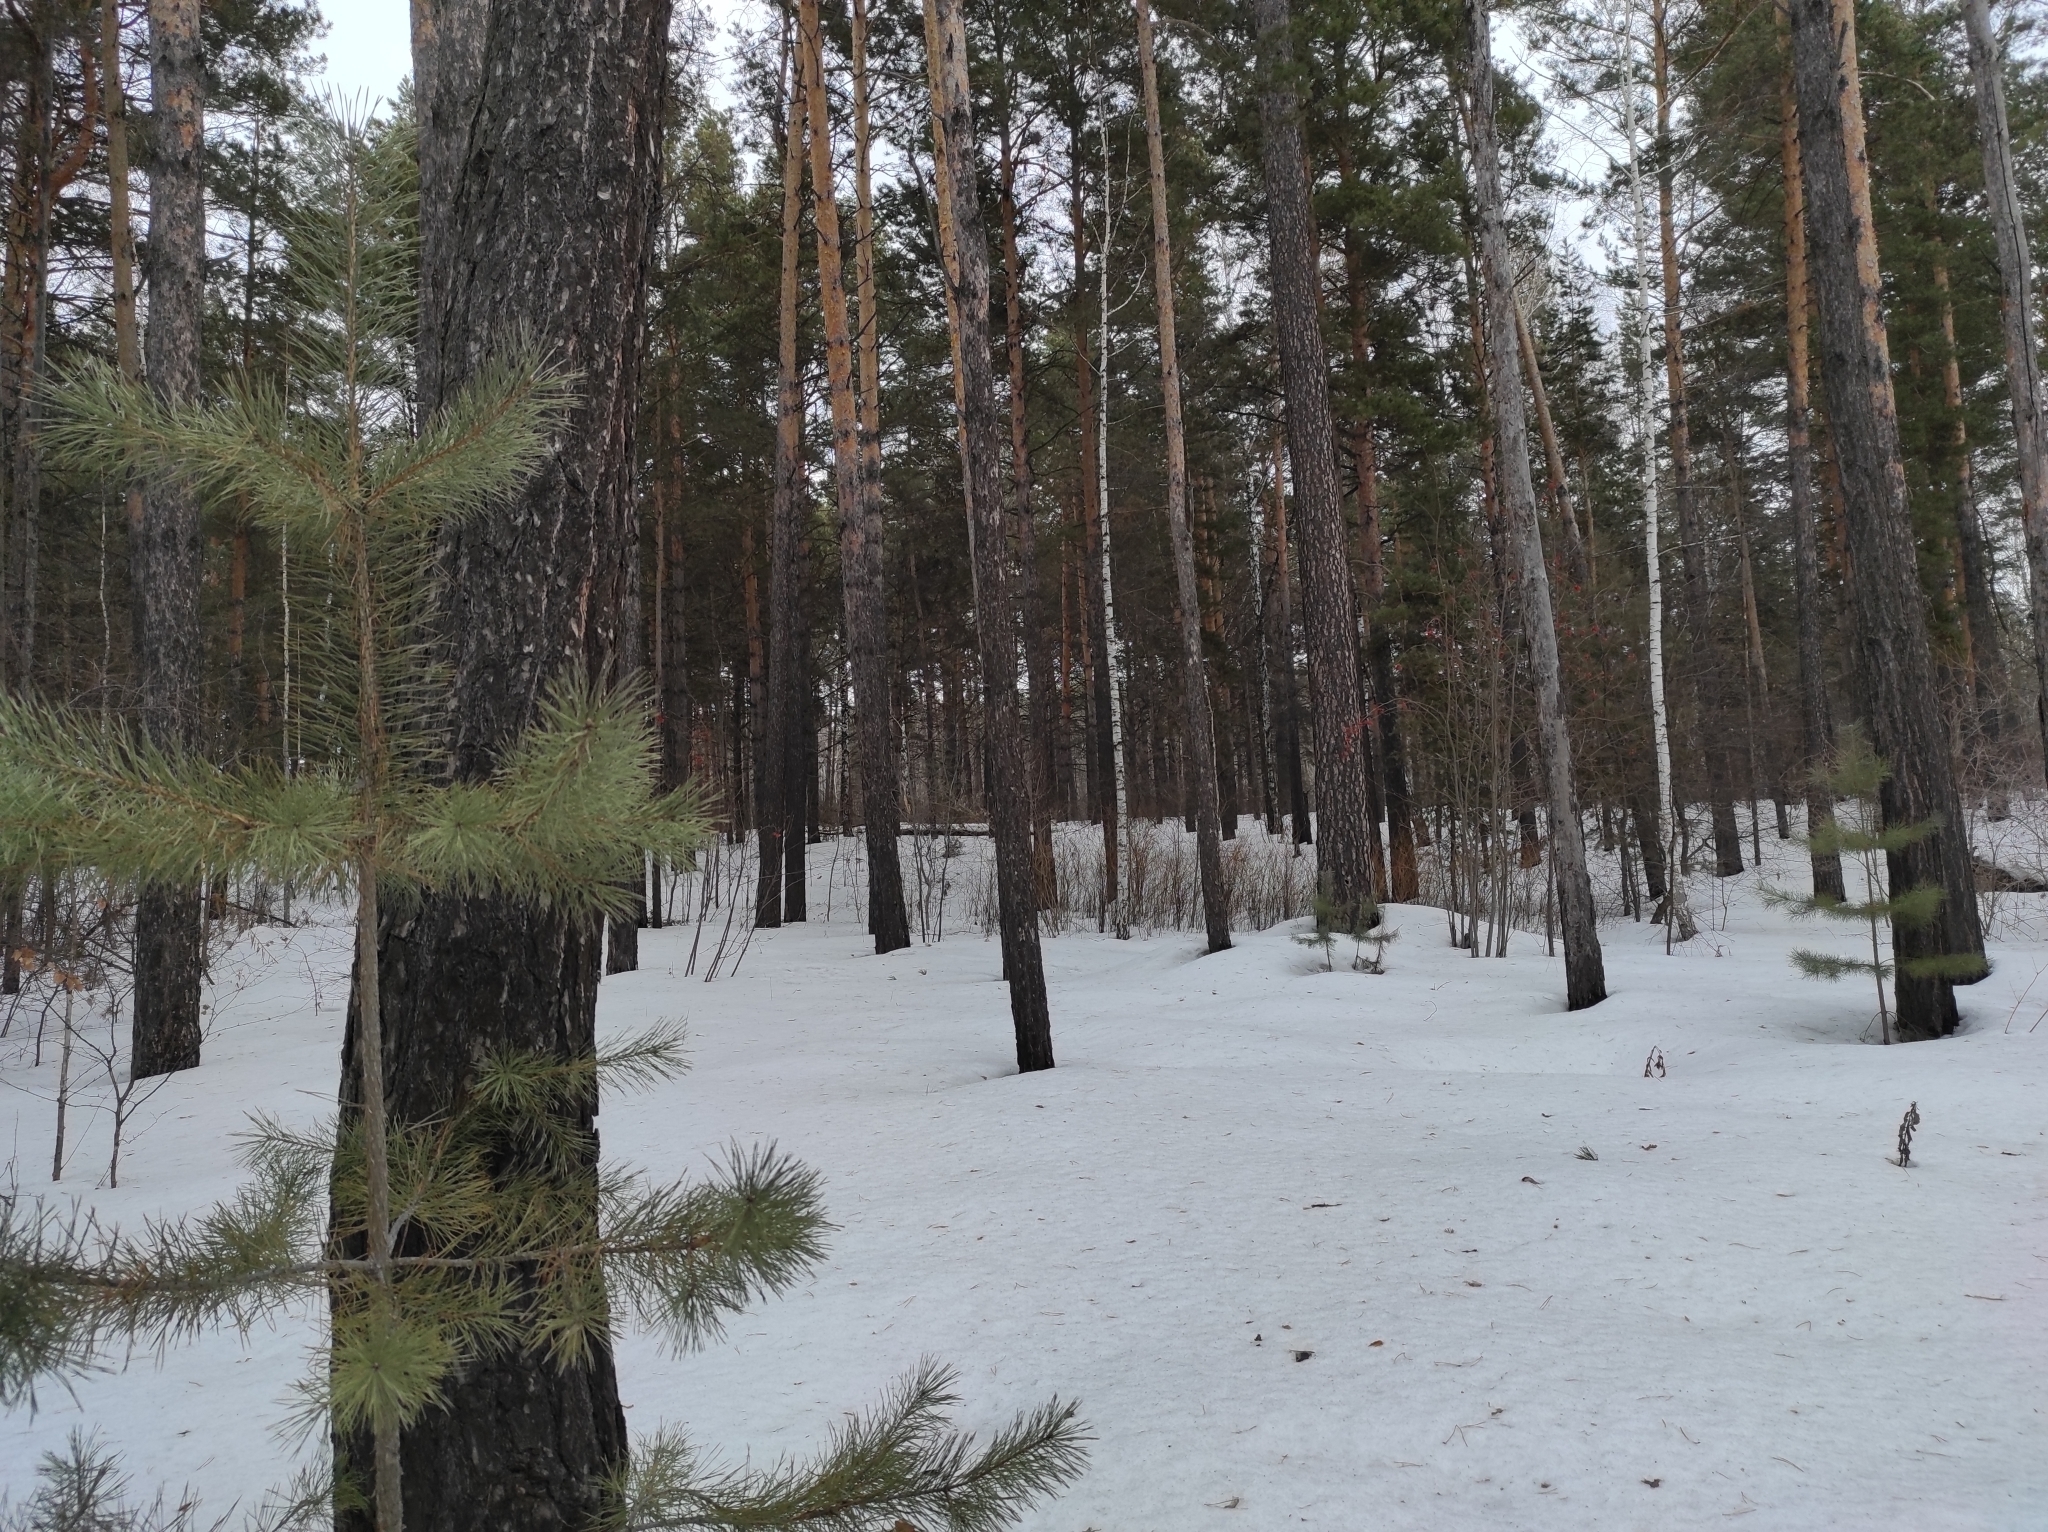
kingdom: Plantae
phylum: Tracheophyta
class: Pinopsida
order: Pinales
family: Pinaceae
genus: Pinus
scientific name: Pinus sylvestris
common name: Scots pine
